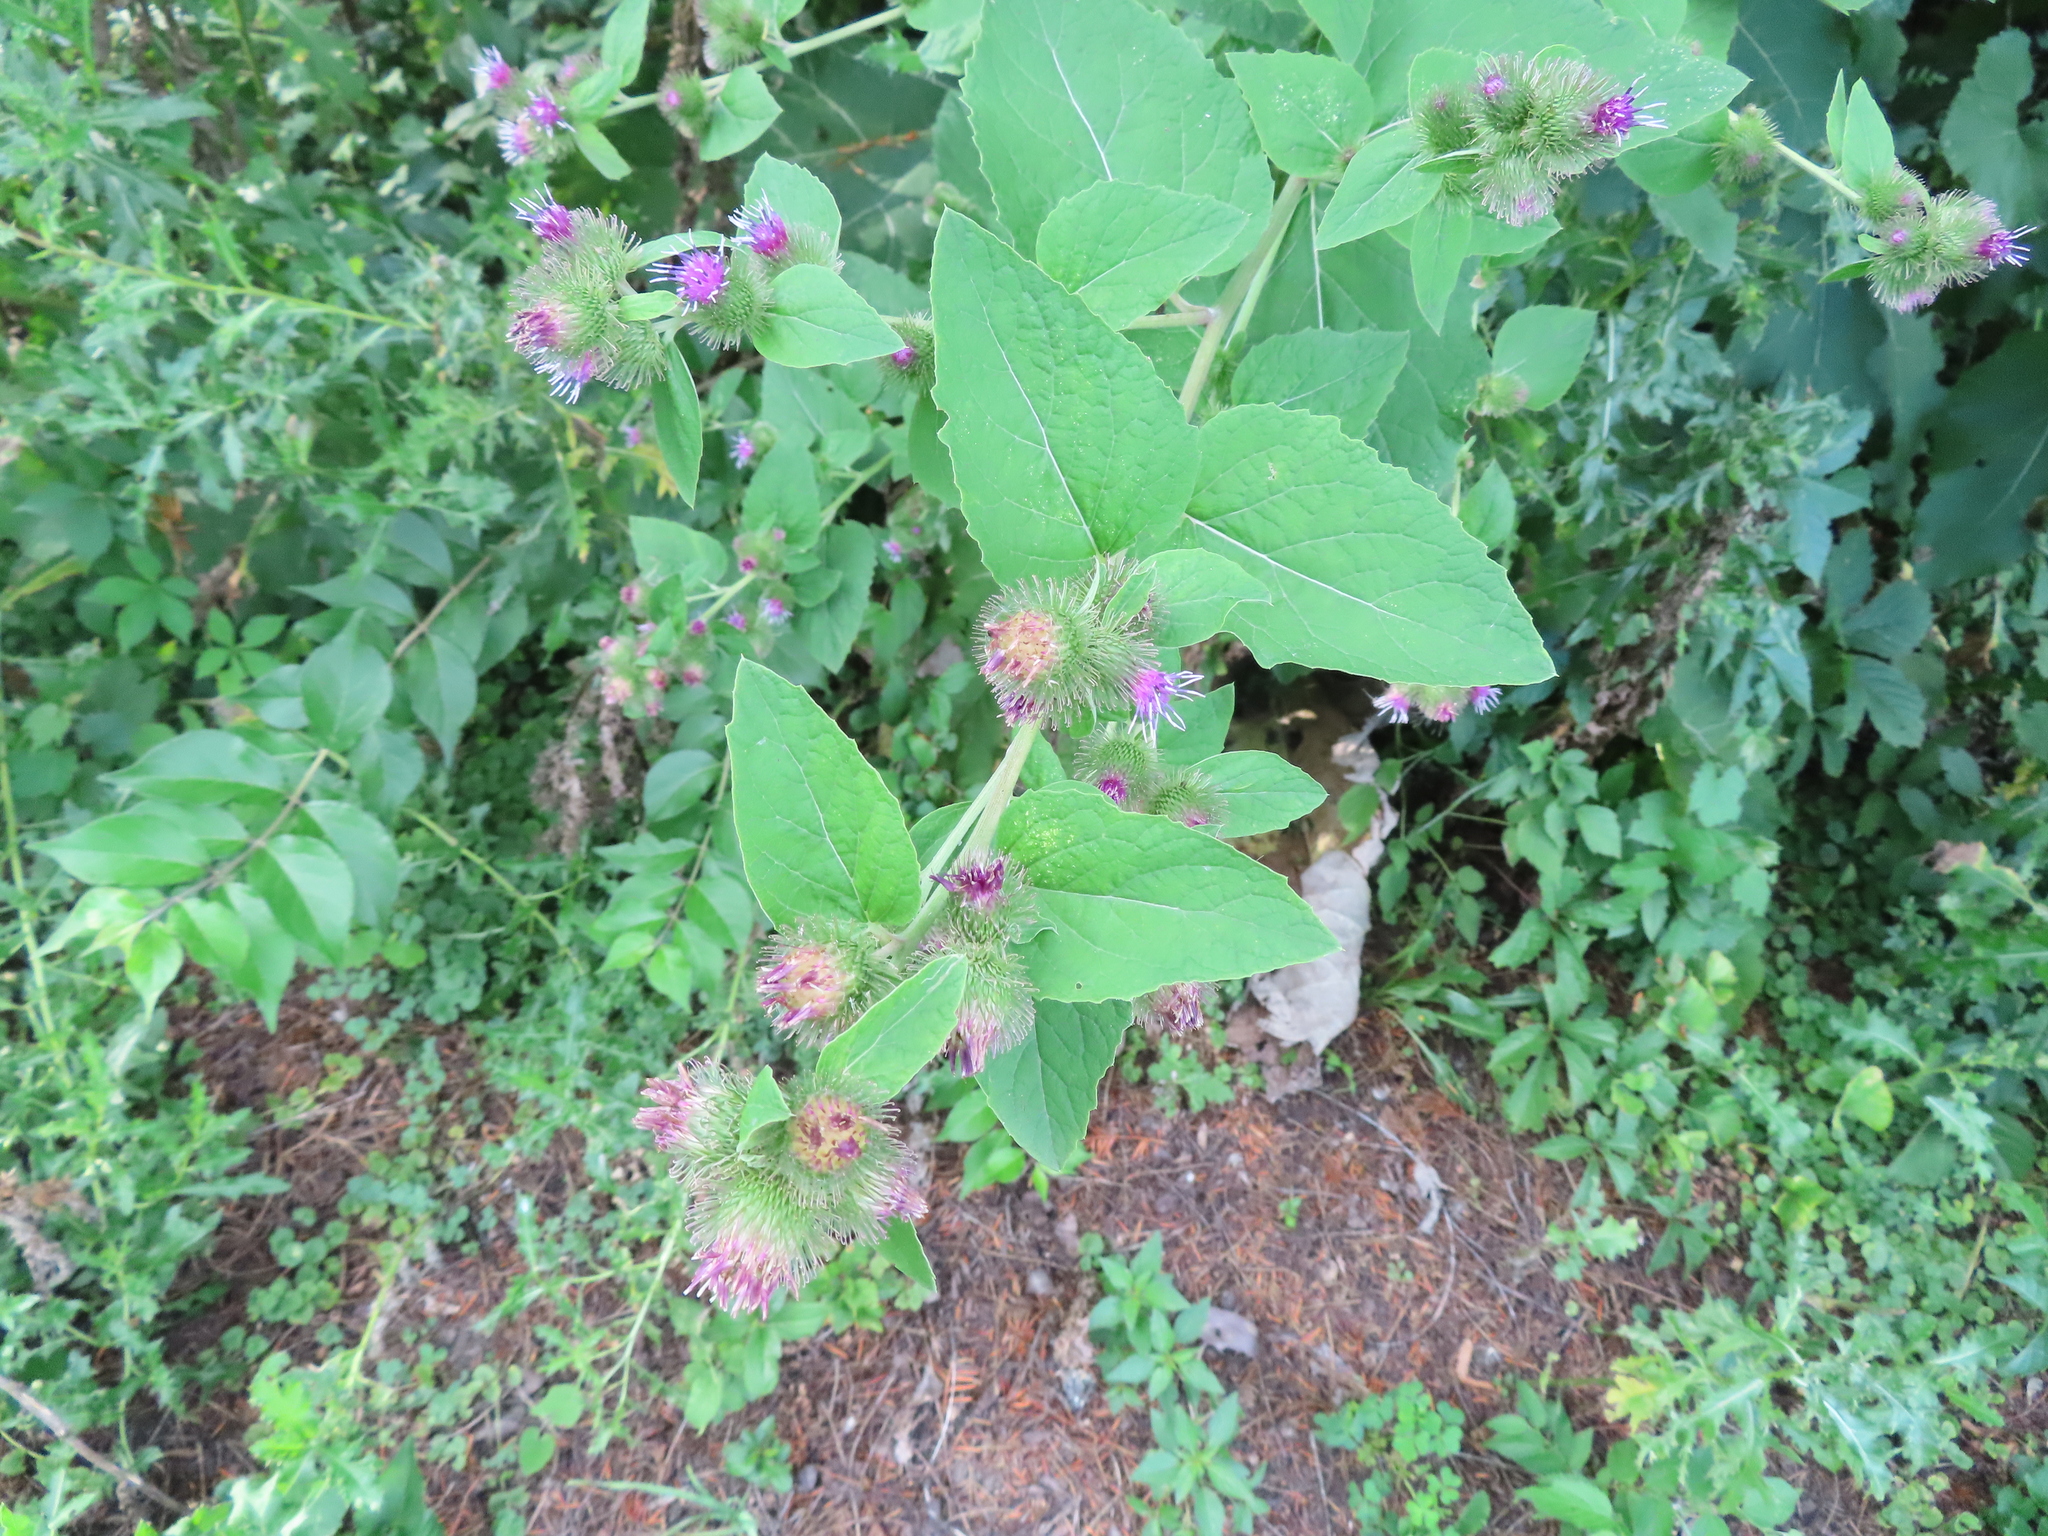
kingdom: Plantae
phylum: Tracheophyta
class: Magnoliopsida
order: Asterales
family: Asteraceae
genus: Arctium
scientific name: Arctium minus
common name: Lesser burdock
